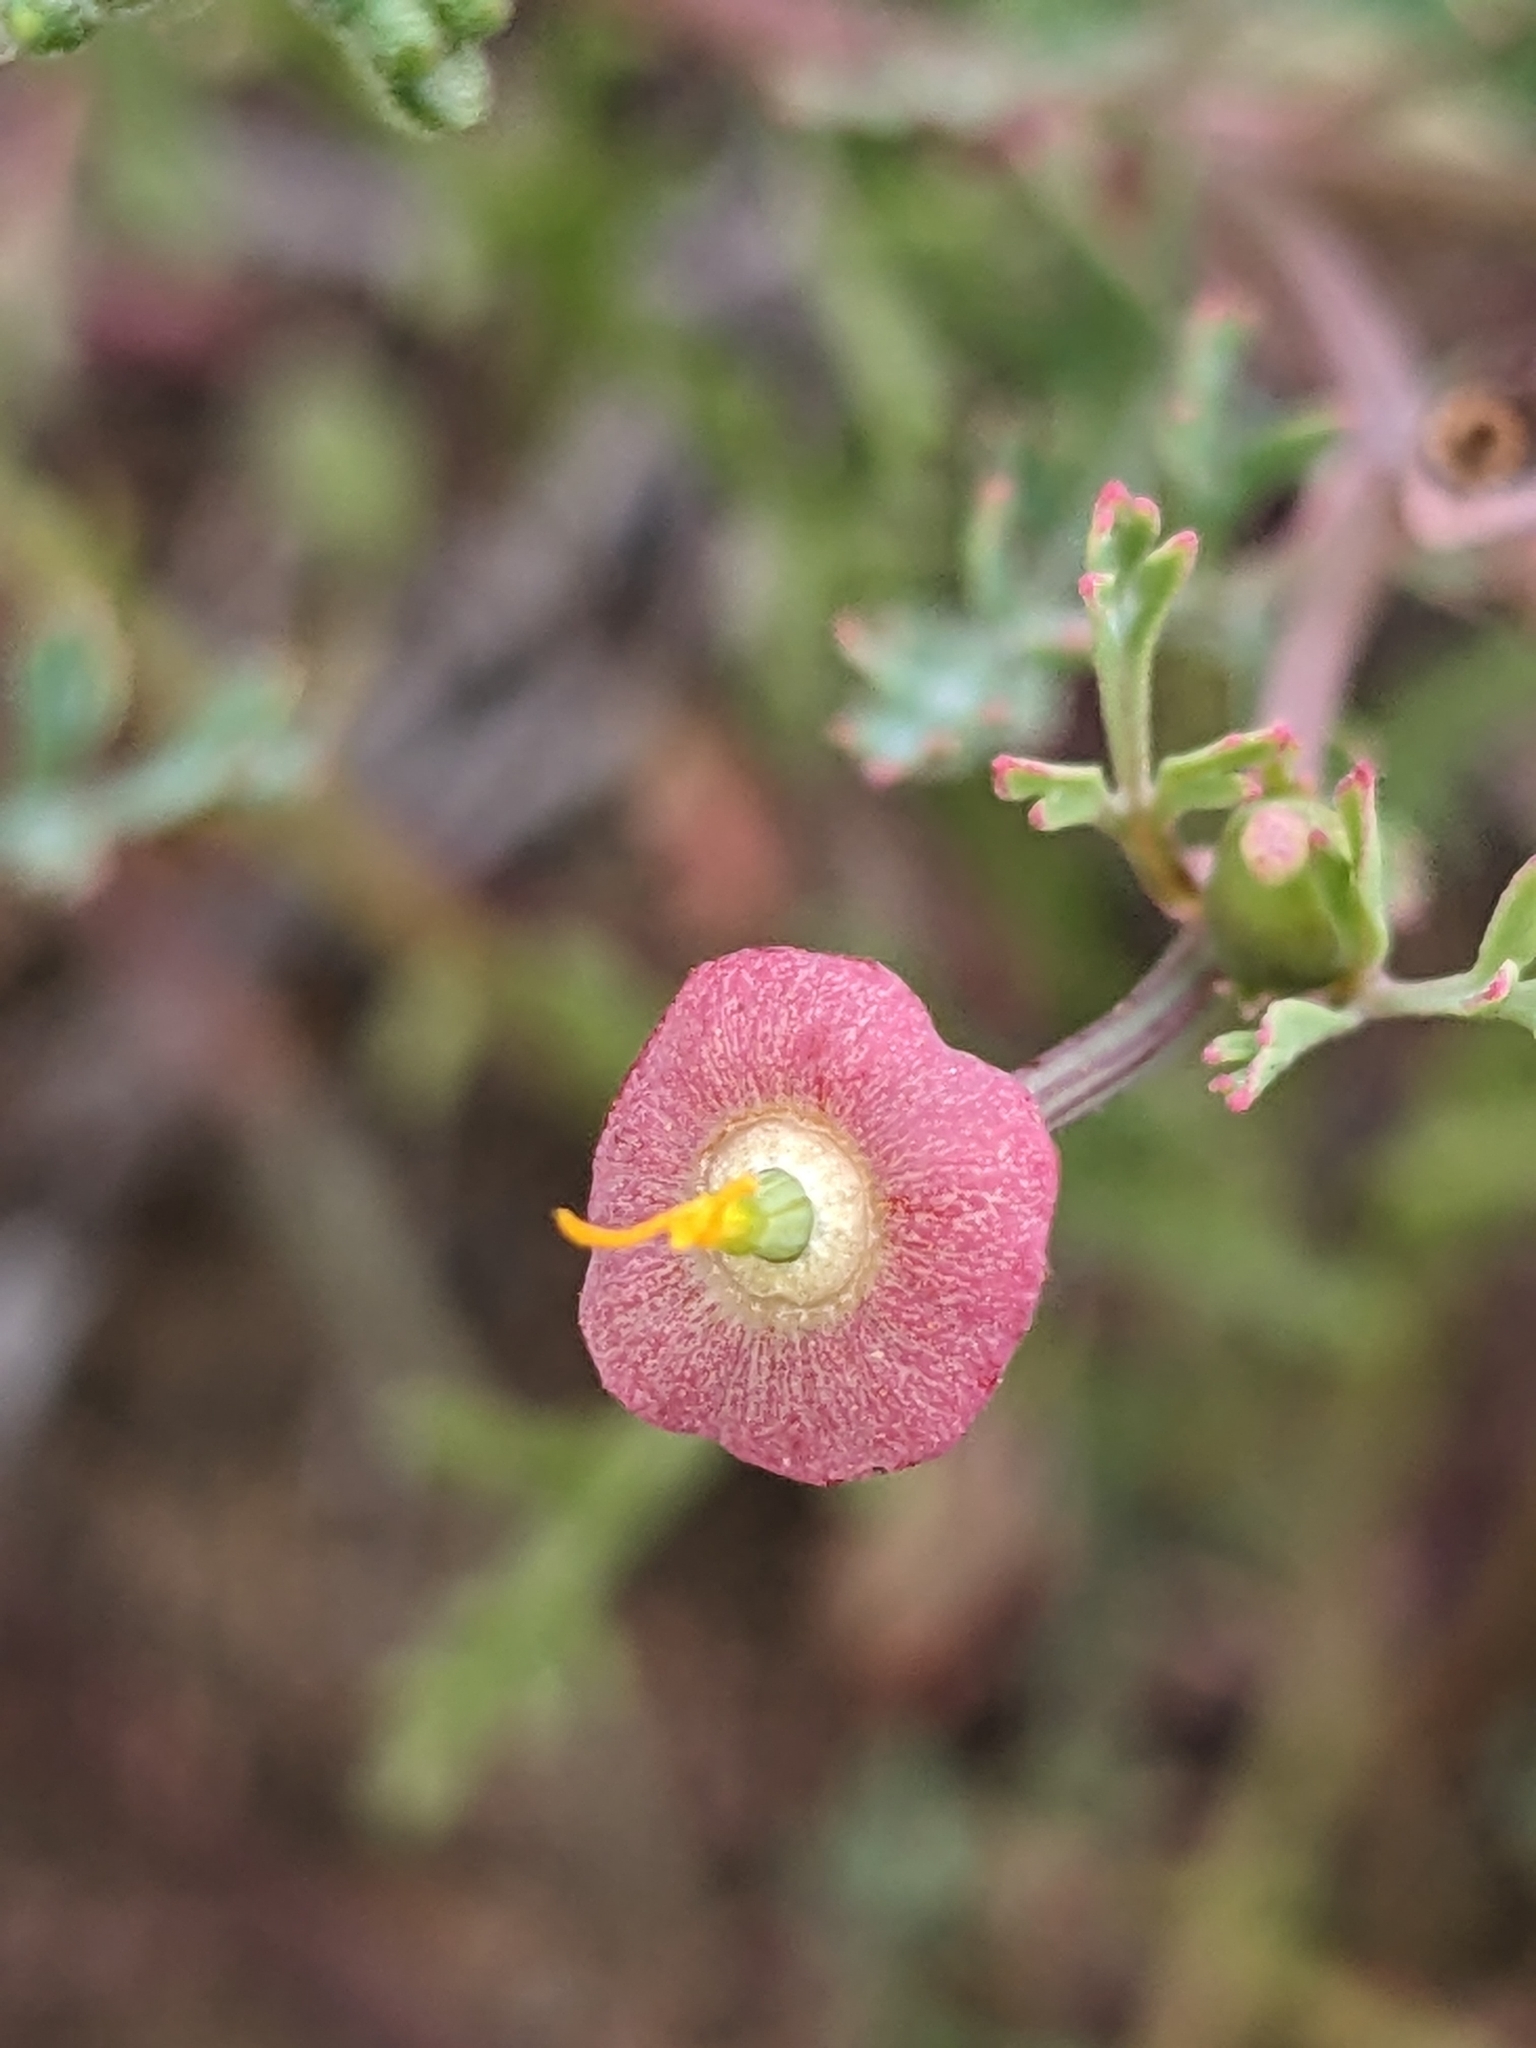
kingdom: Plantae
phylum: Tracheophyta
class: Magnoliopsida
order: Ranunculales
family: Papaveraceae
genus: Eschscholzia
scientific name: Eschscholzia californica
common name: California poppy
